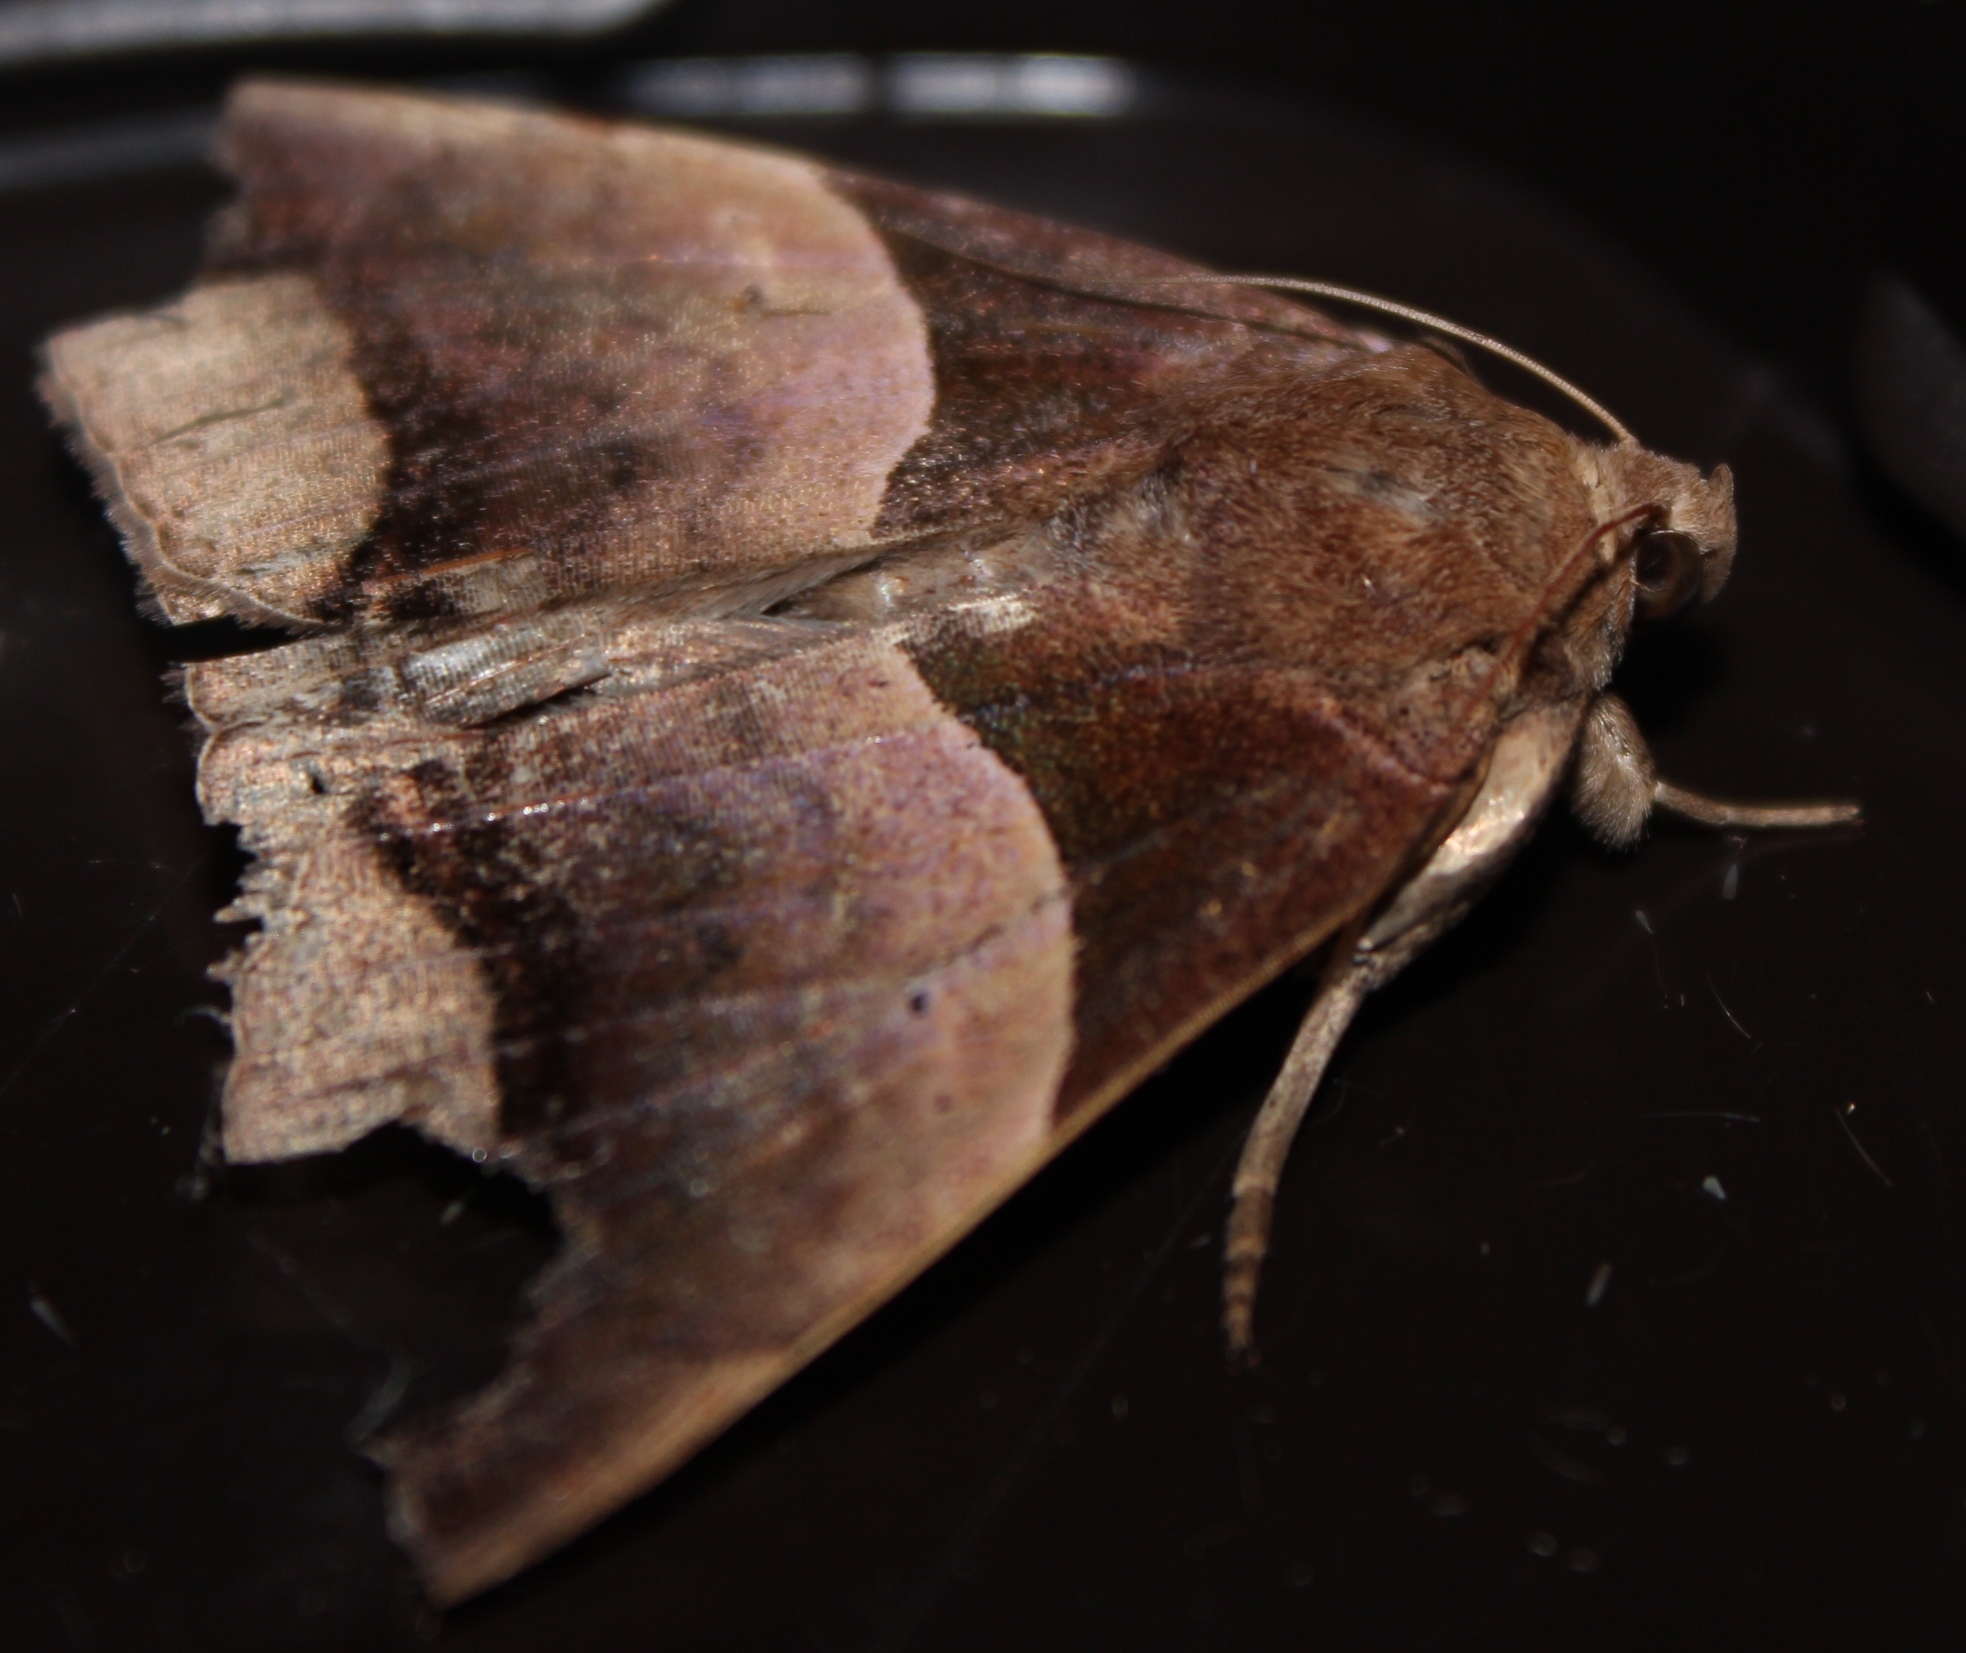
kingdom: Animalia
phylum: Arthropoda
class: Insecta
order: Lepidoptera
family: Erebidae
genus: Achaea
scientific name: Achaea echo
